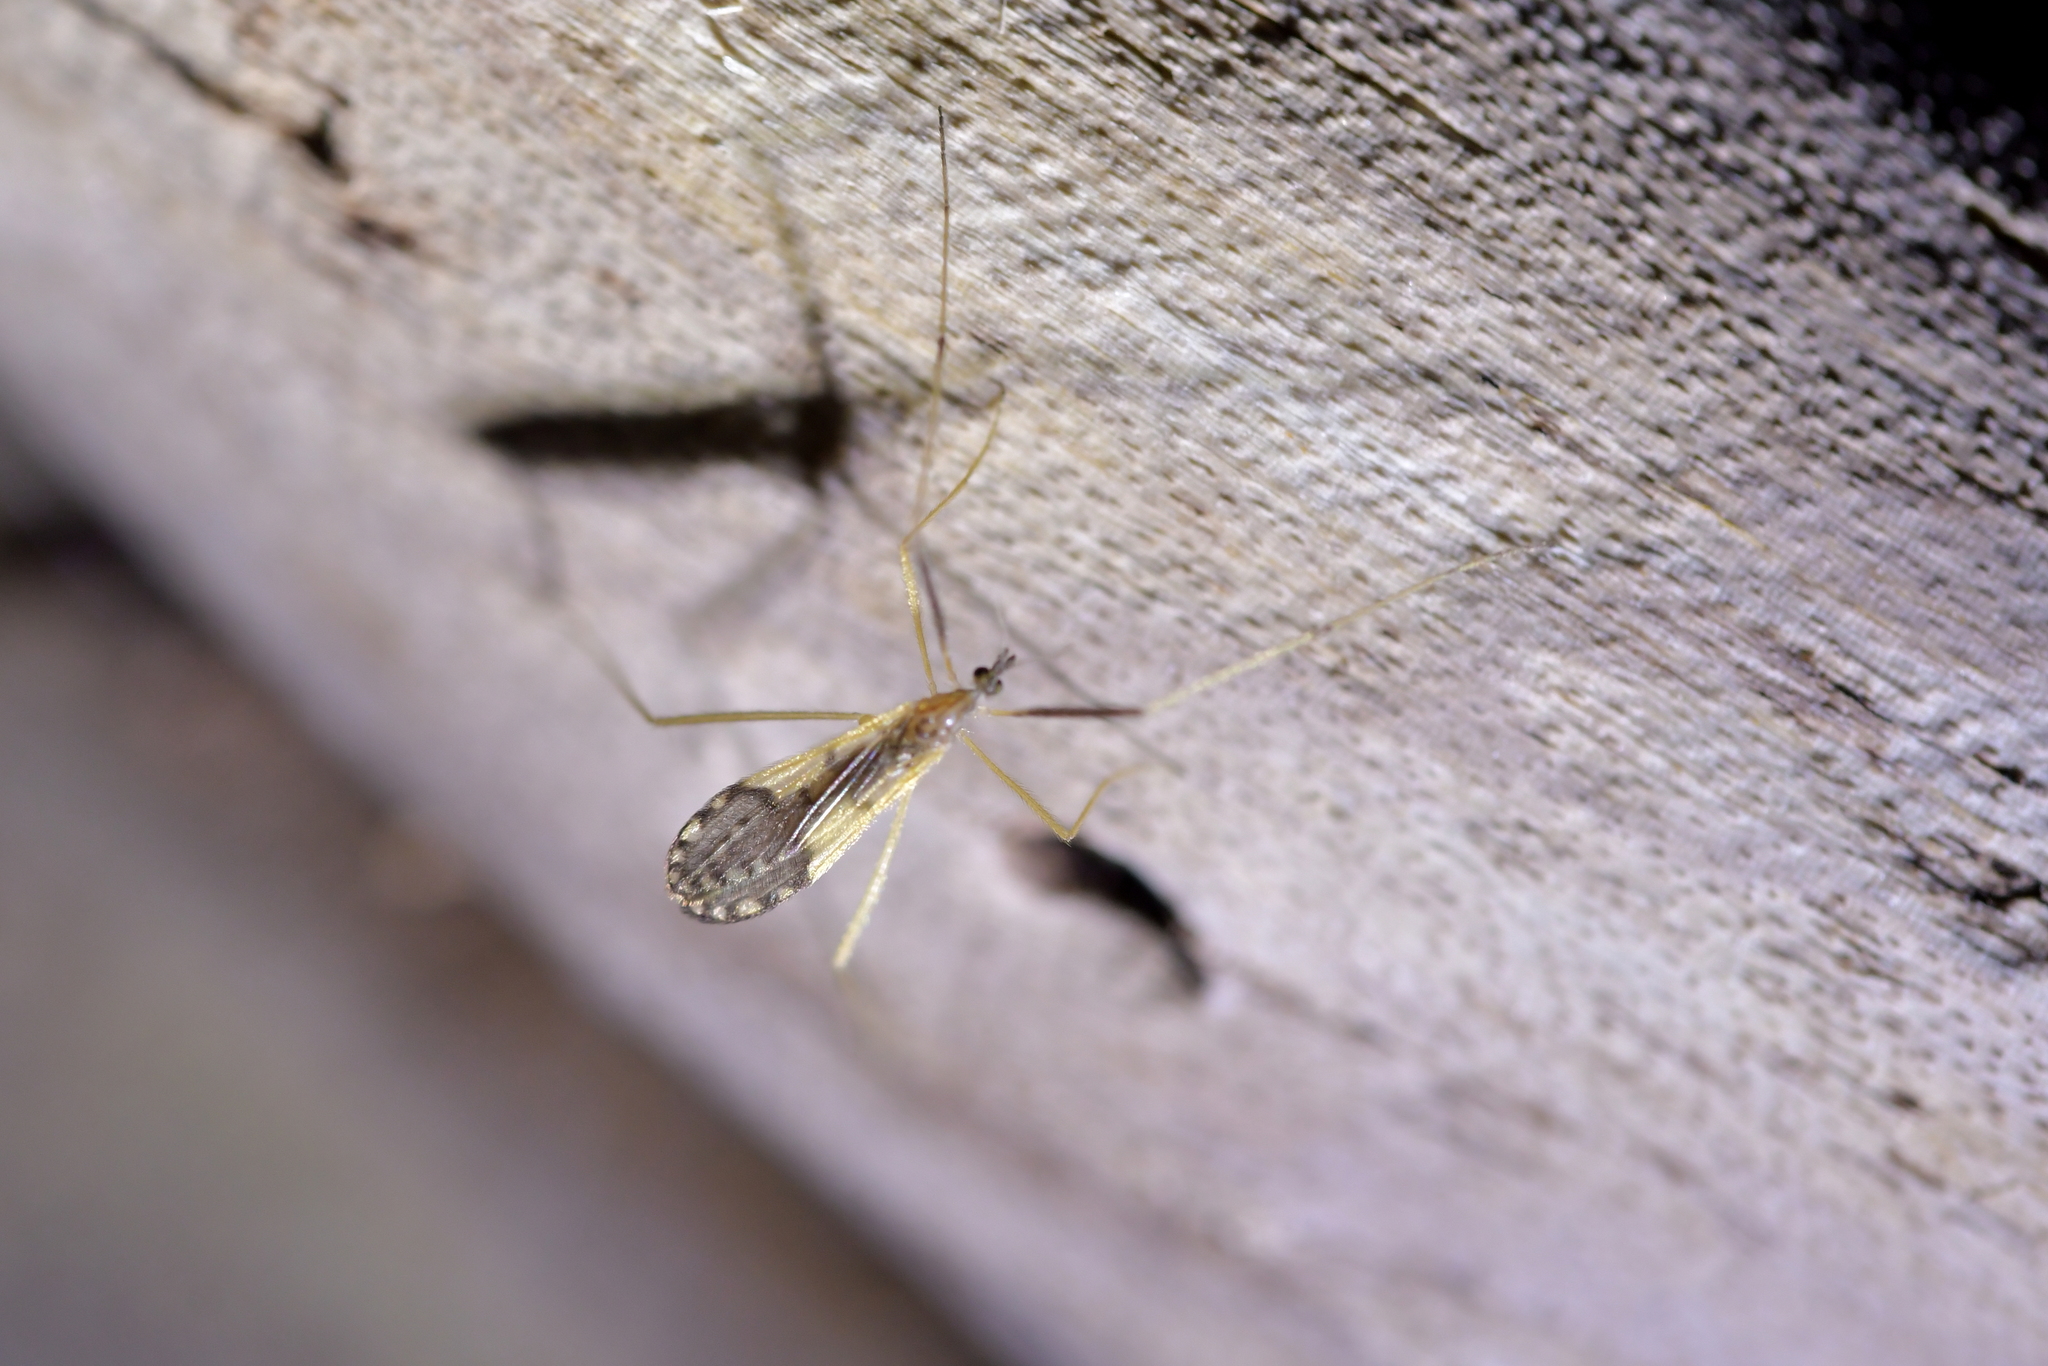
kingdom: Animalia
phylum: Arthropoda
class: Insecta
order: Diptera
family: Limoniidae
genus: Molophilus
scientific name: Molophilus pulcherrimus
